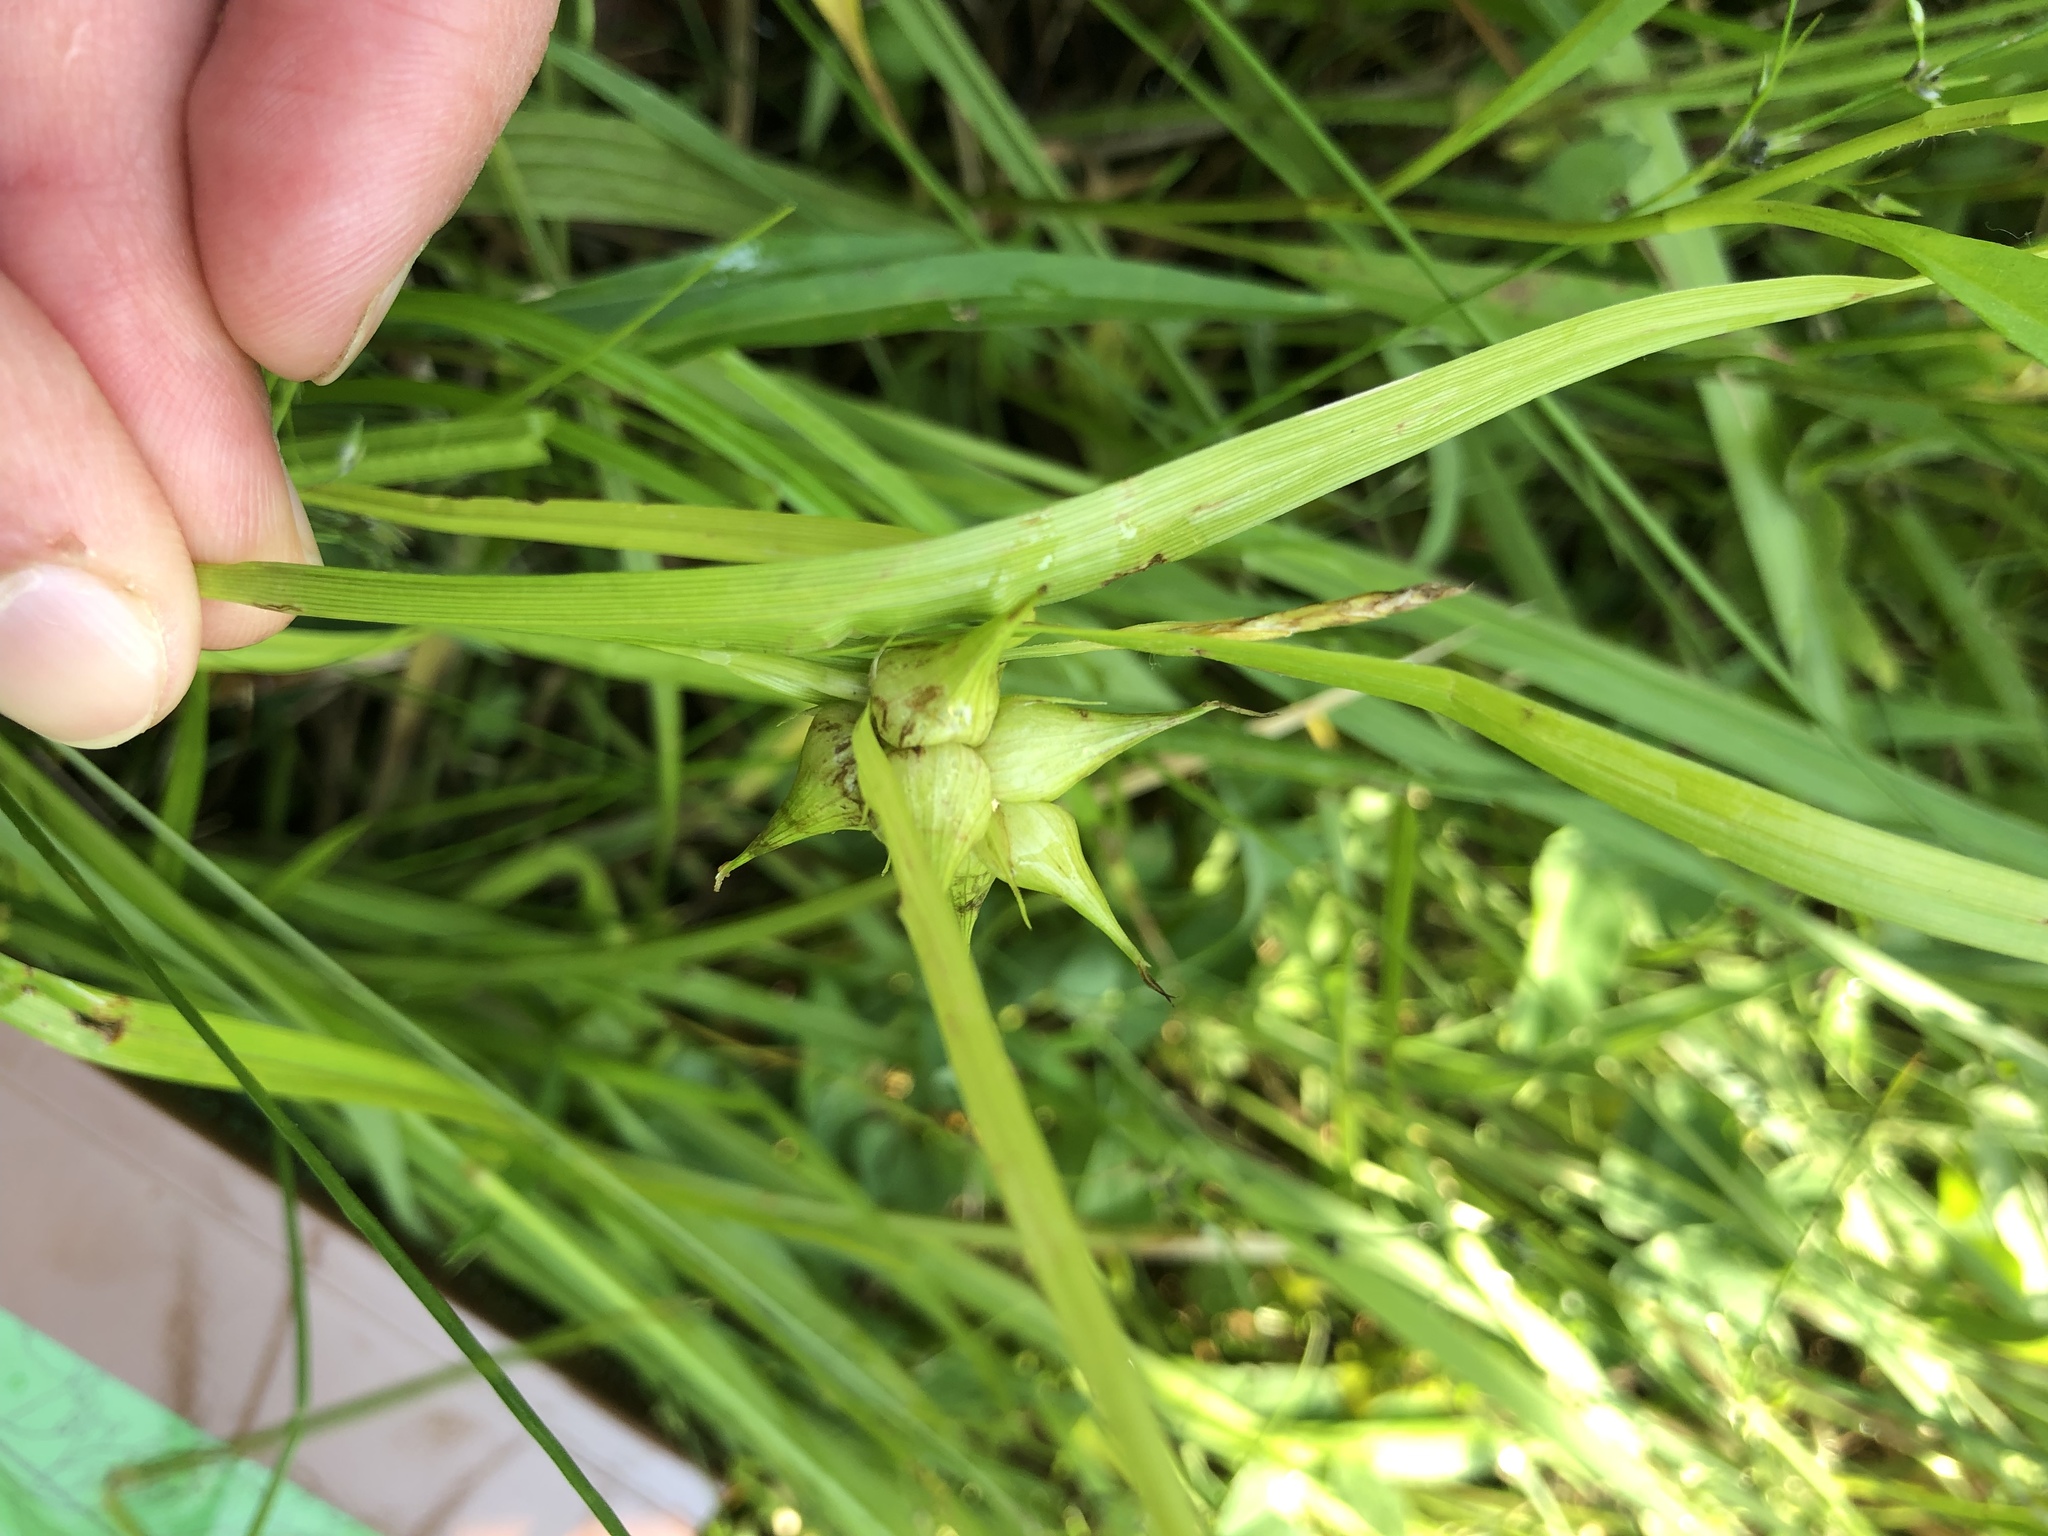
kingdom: Plantae
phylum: Tracheophyta
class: Liliopsida
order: Poales
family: Cyperaceae
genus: Carex
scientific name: Carex intumescens
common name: Greater bladder sedge
